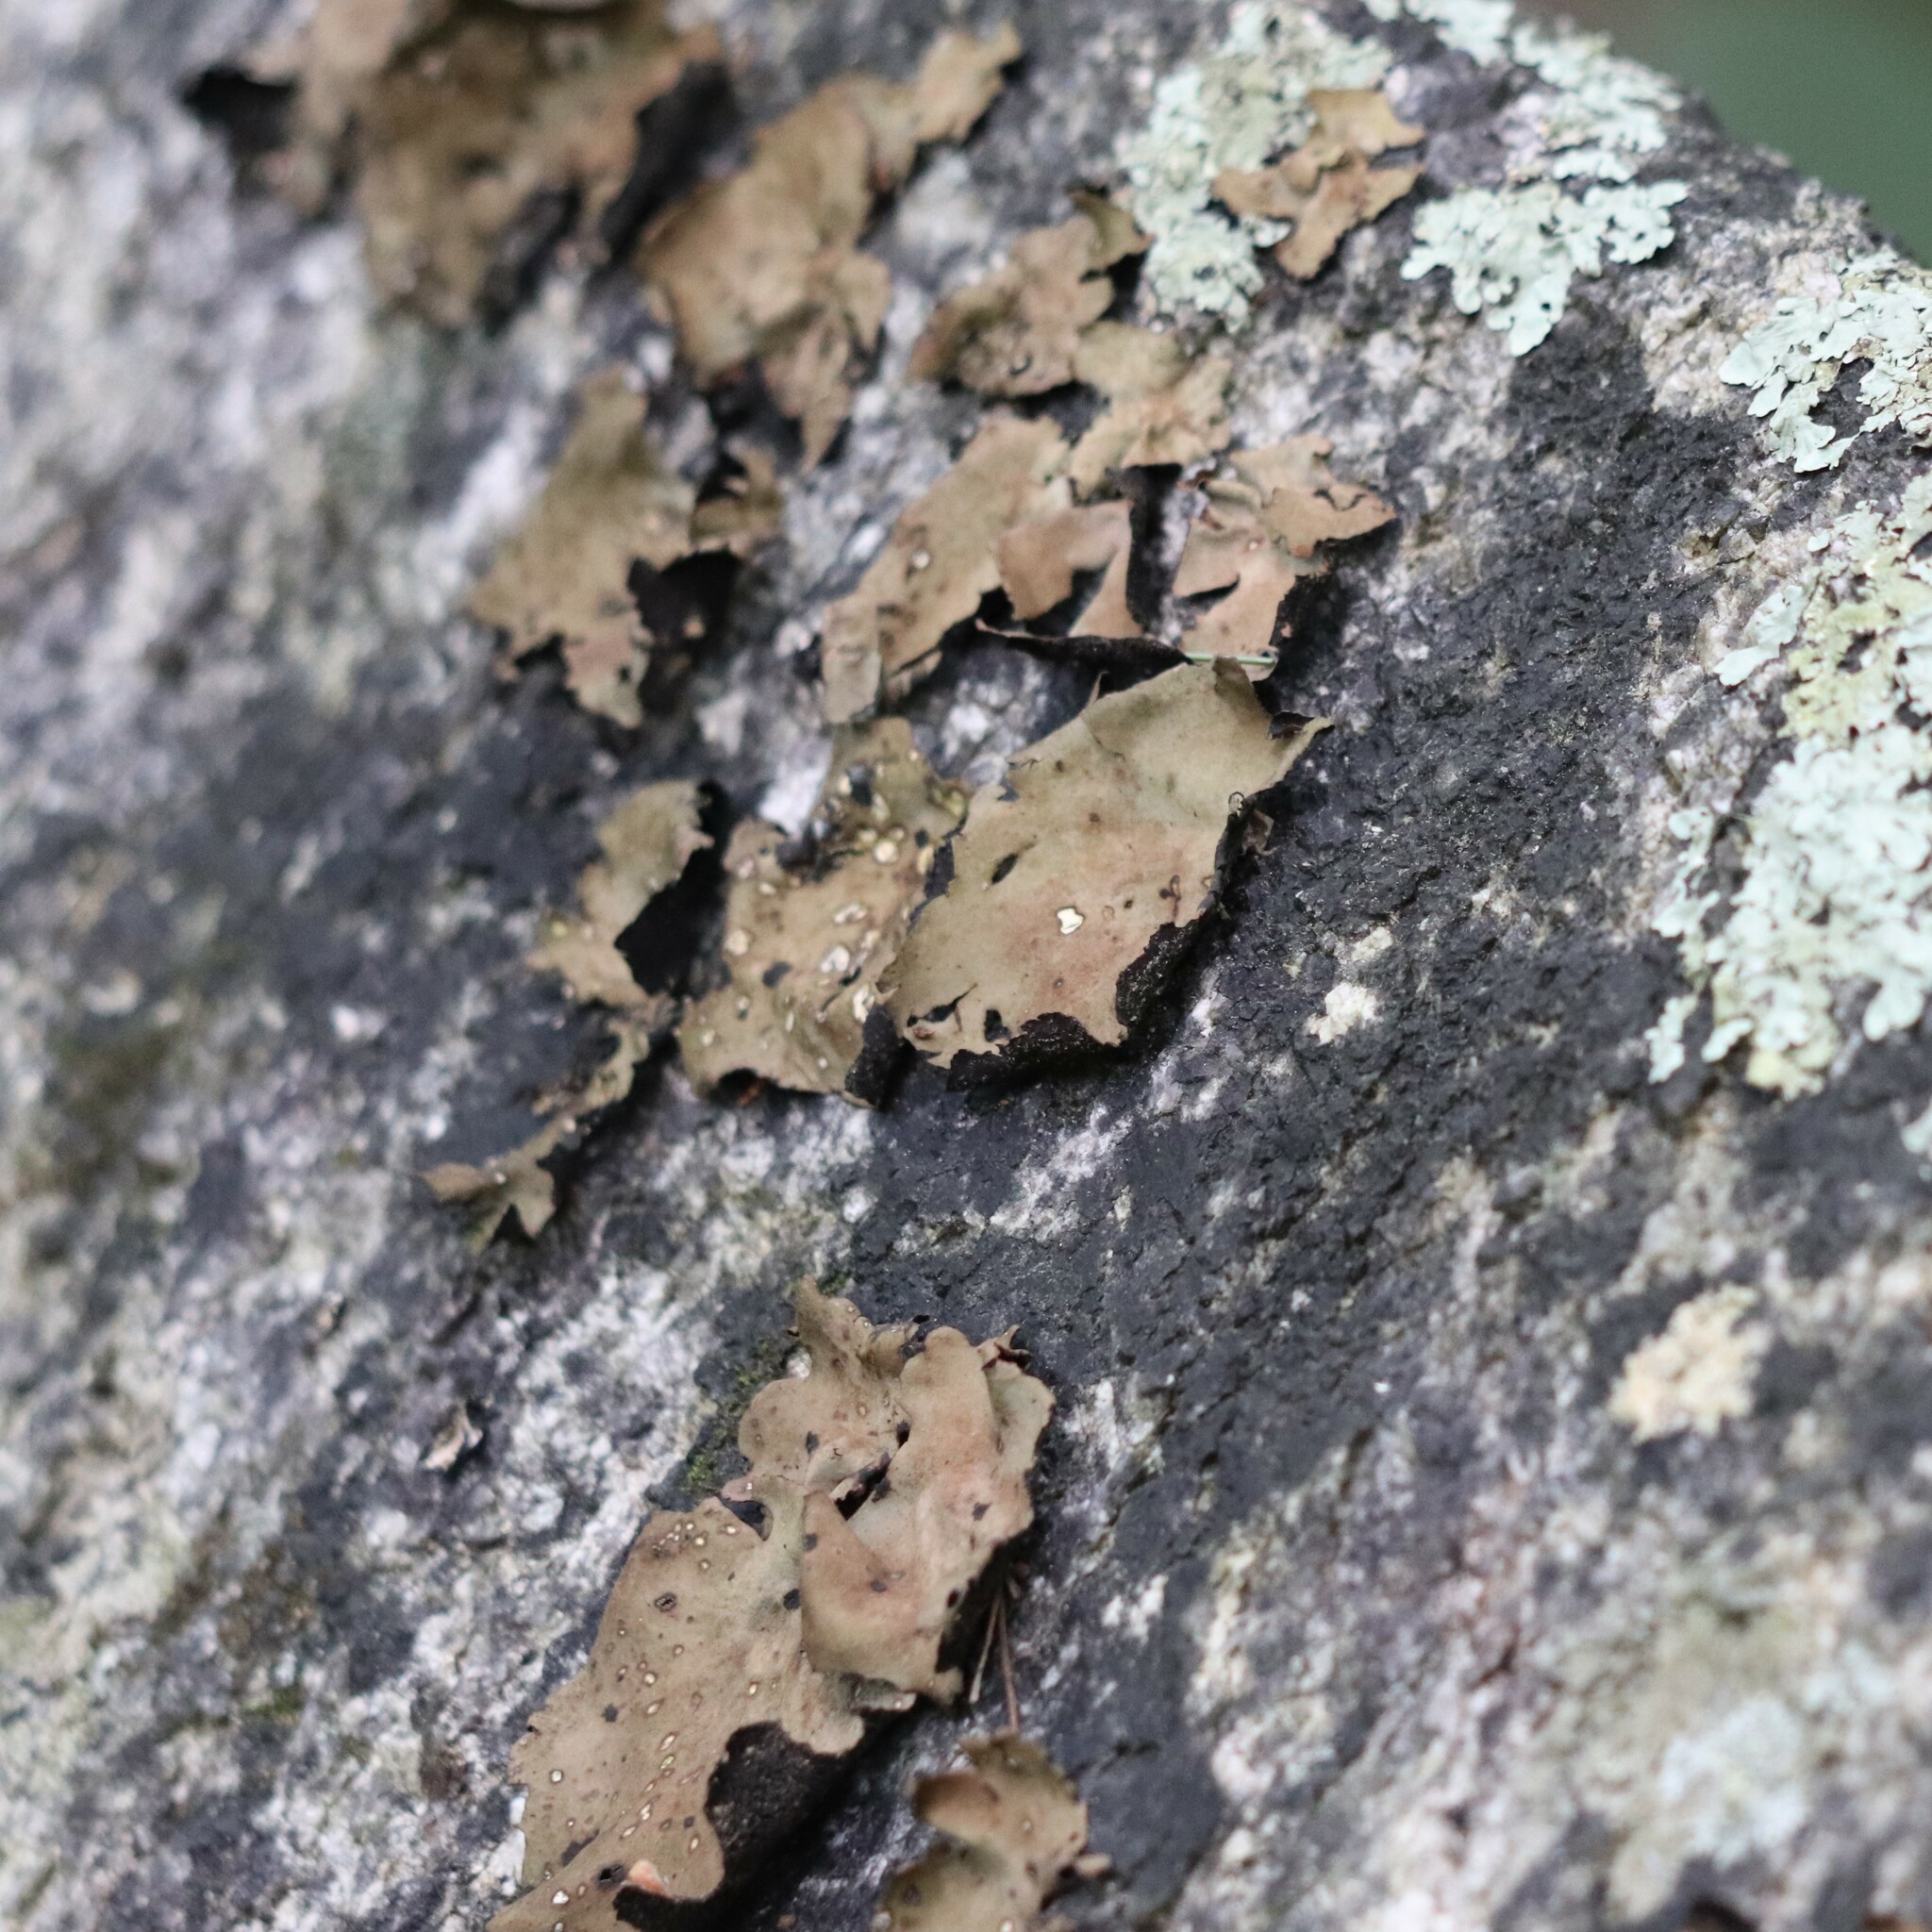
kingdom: Fungi
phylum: Ascomycota
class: Lecanoromycetes
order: Umbilicariales
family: Umbilicariaceae
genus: Umbilicaria
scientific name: Umbilicaria mammulata
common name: Smooth rock tripe
